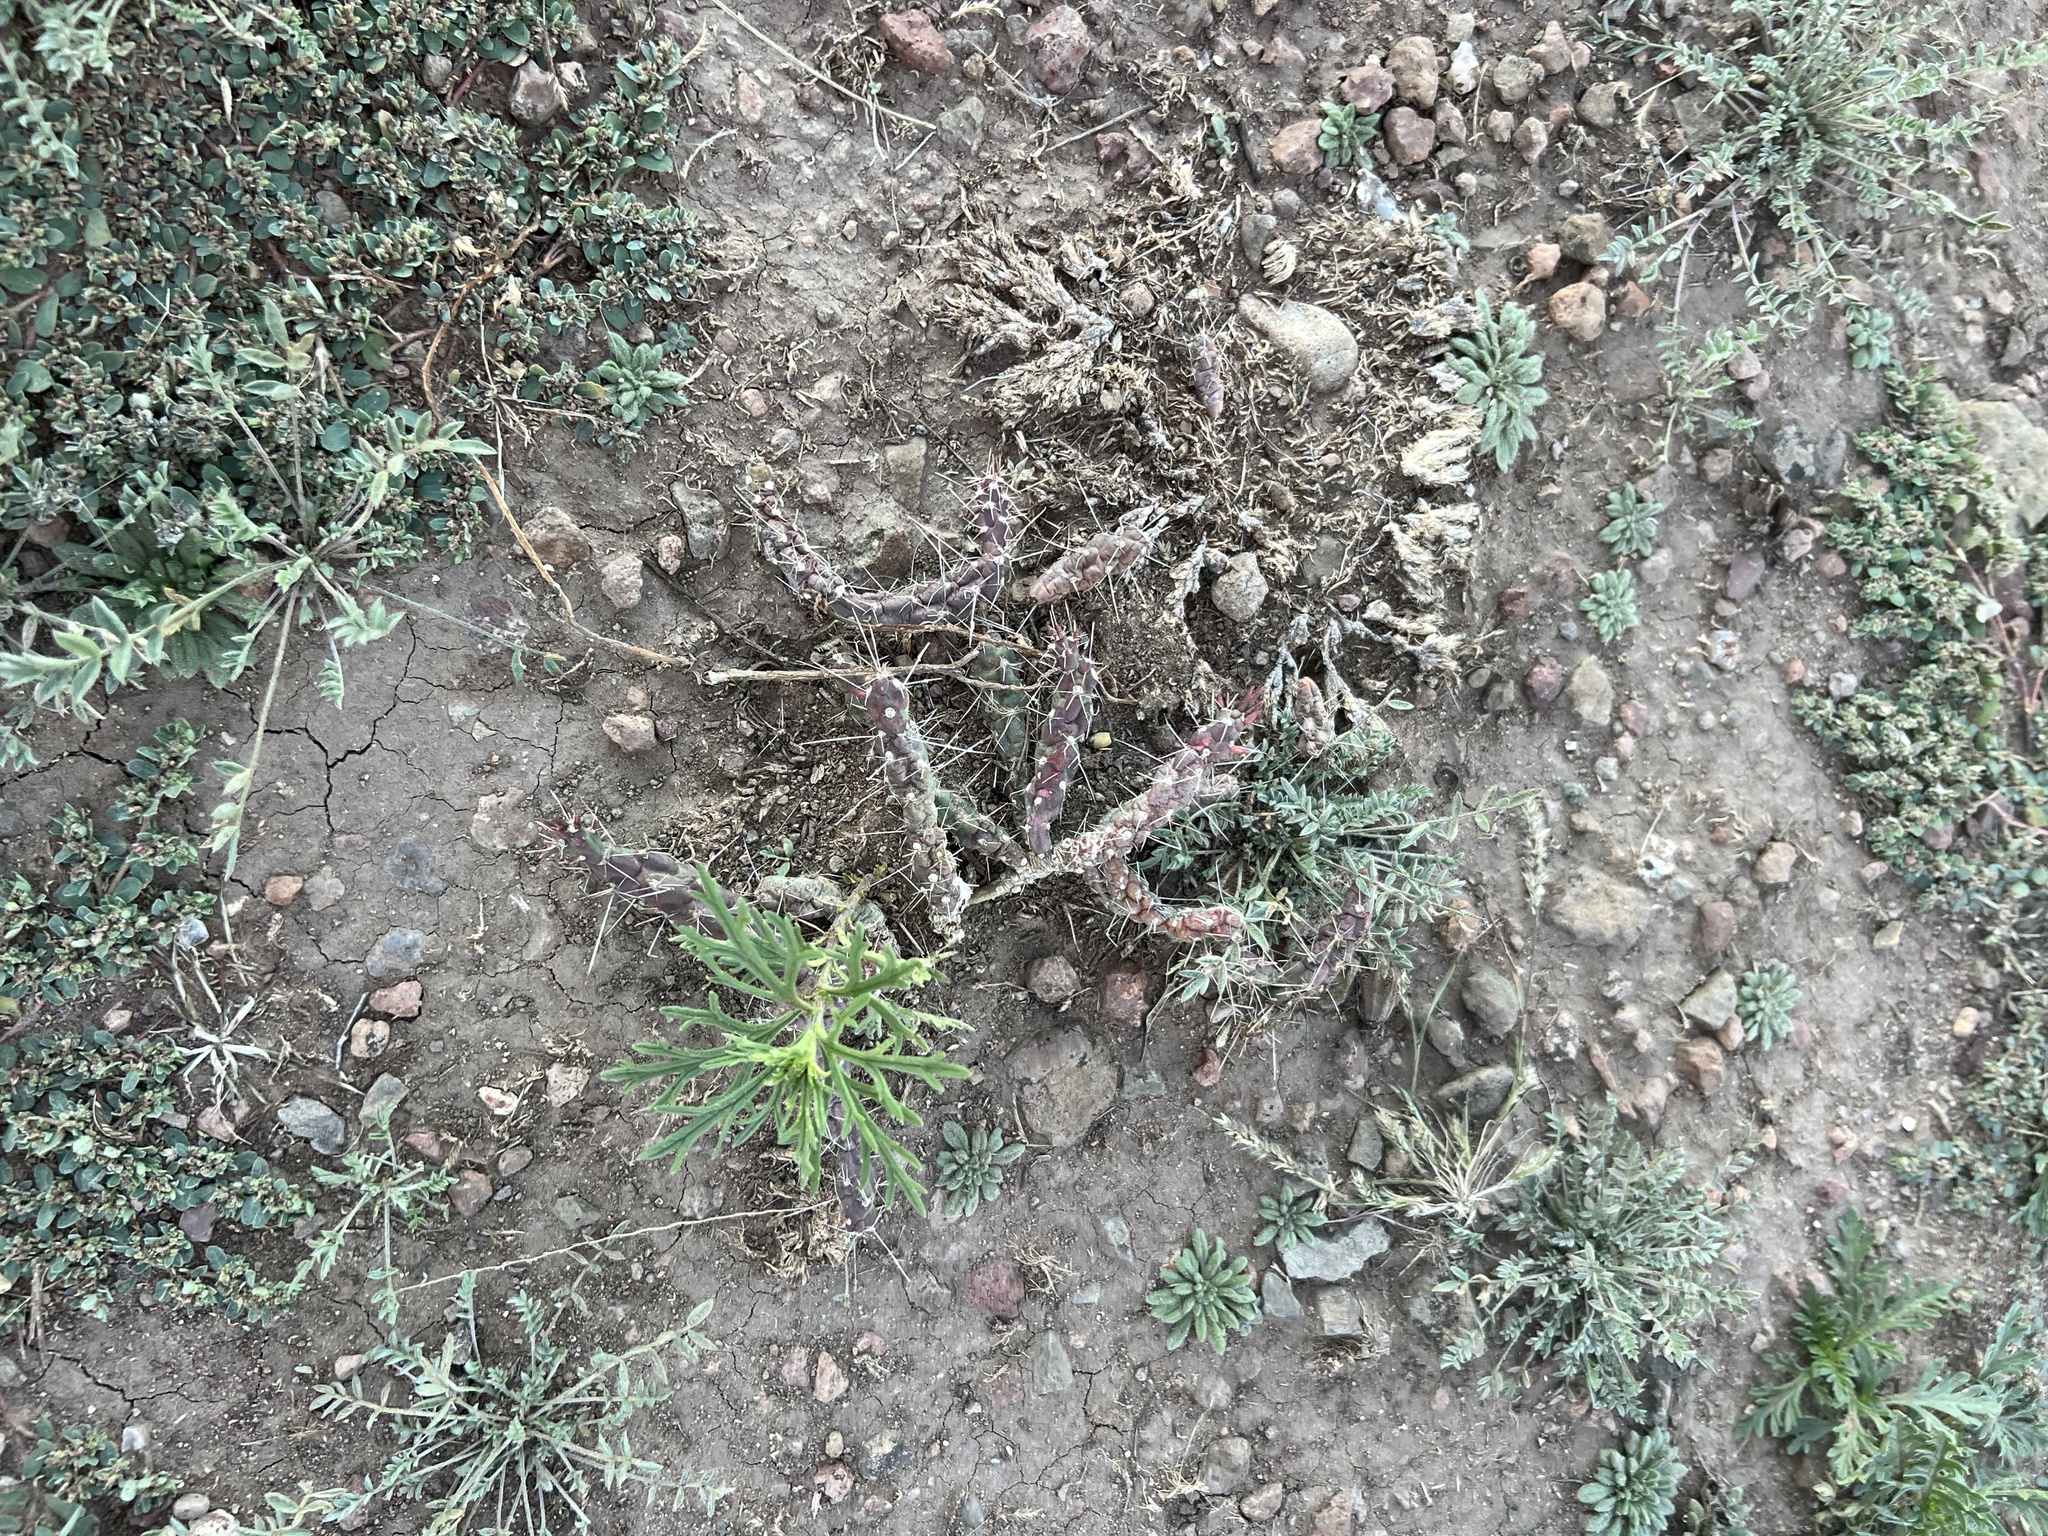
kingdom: Plantae
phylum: Tracheophyta
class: Magnoliopsida
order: Caryophyllales
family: Cactaceae
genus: Cylindropuntia
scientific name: Cylindropuntia davisii
